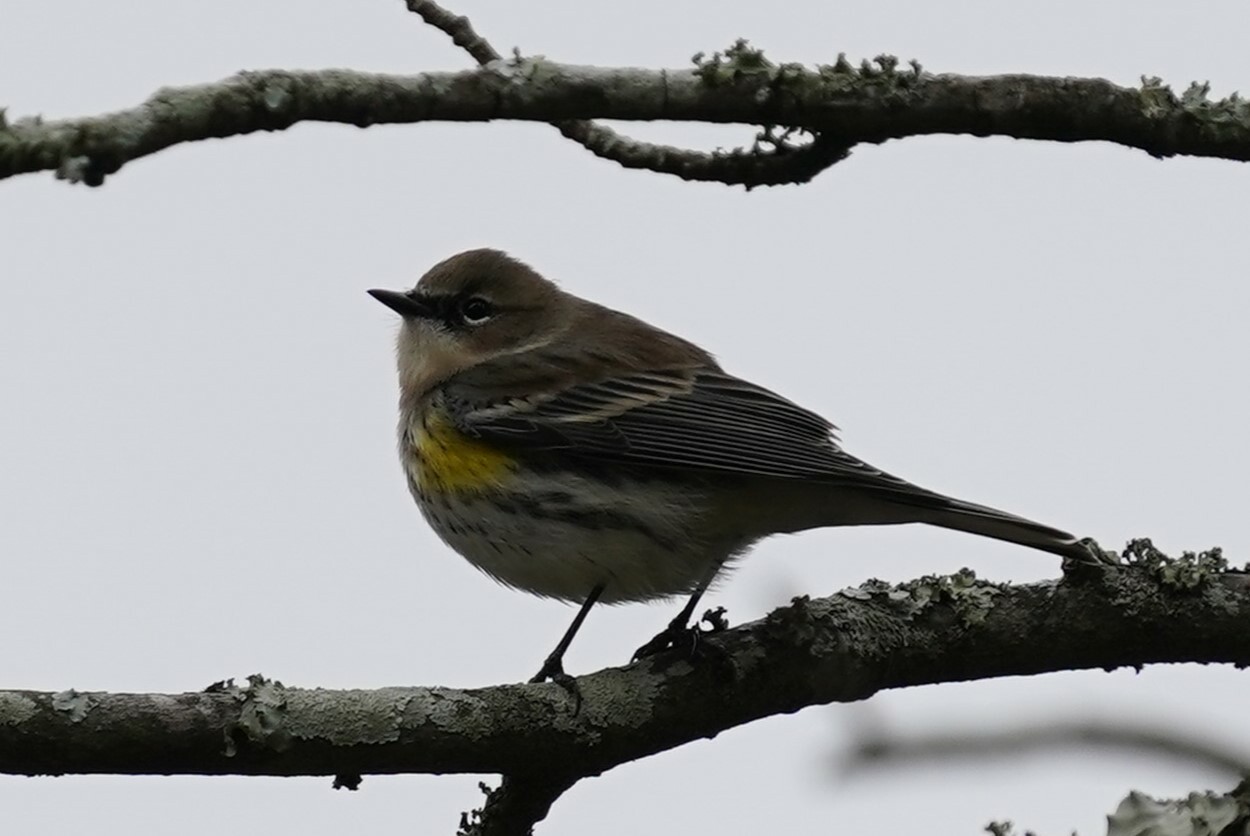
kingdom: Animalia
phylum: Chordata
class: Aves
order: Passeriformes
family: Parulidae
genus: Setophaga
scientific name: Setophaga coronata
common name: Myrtle warbler
